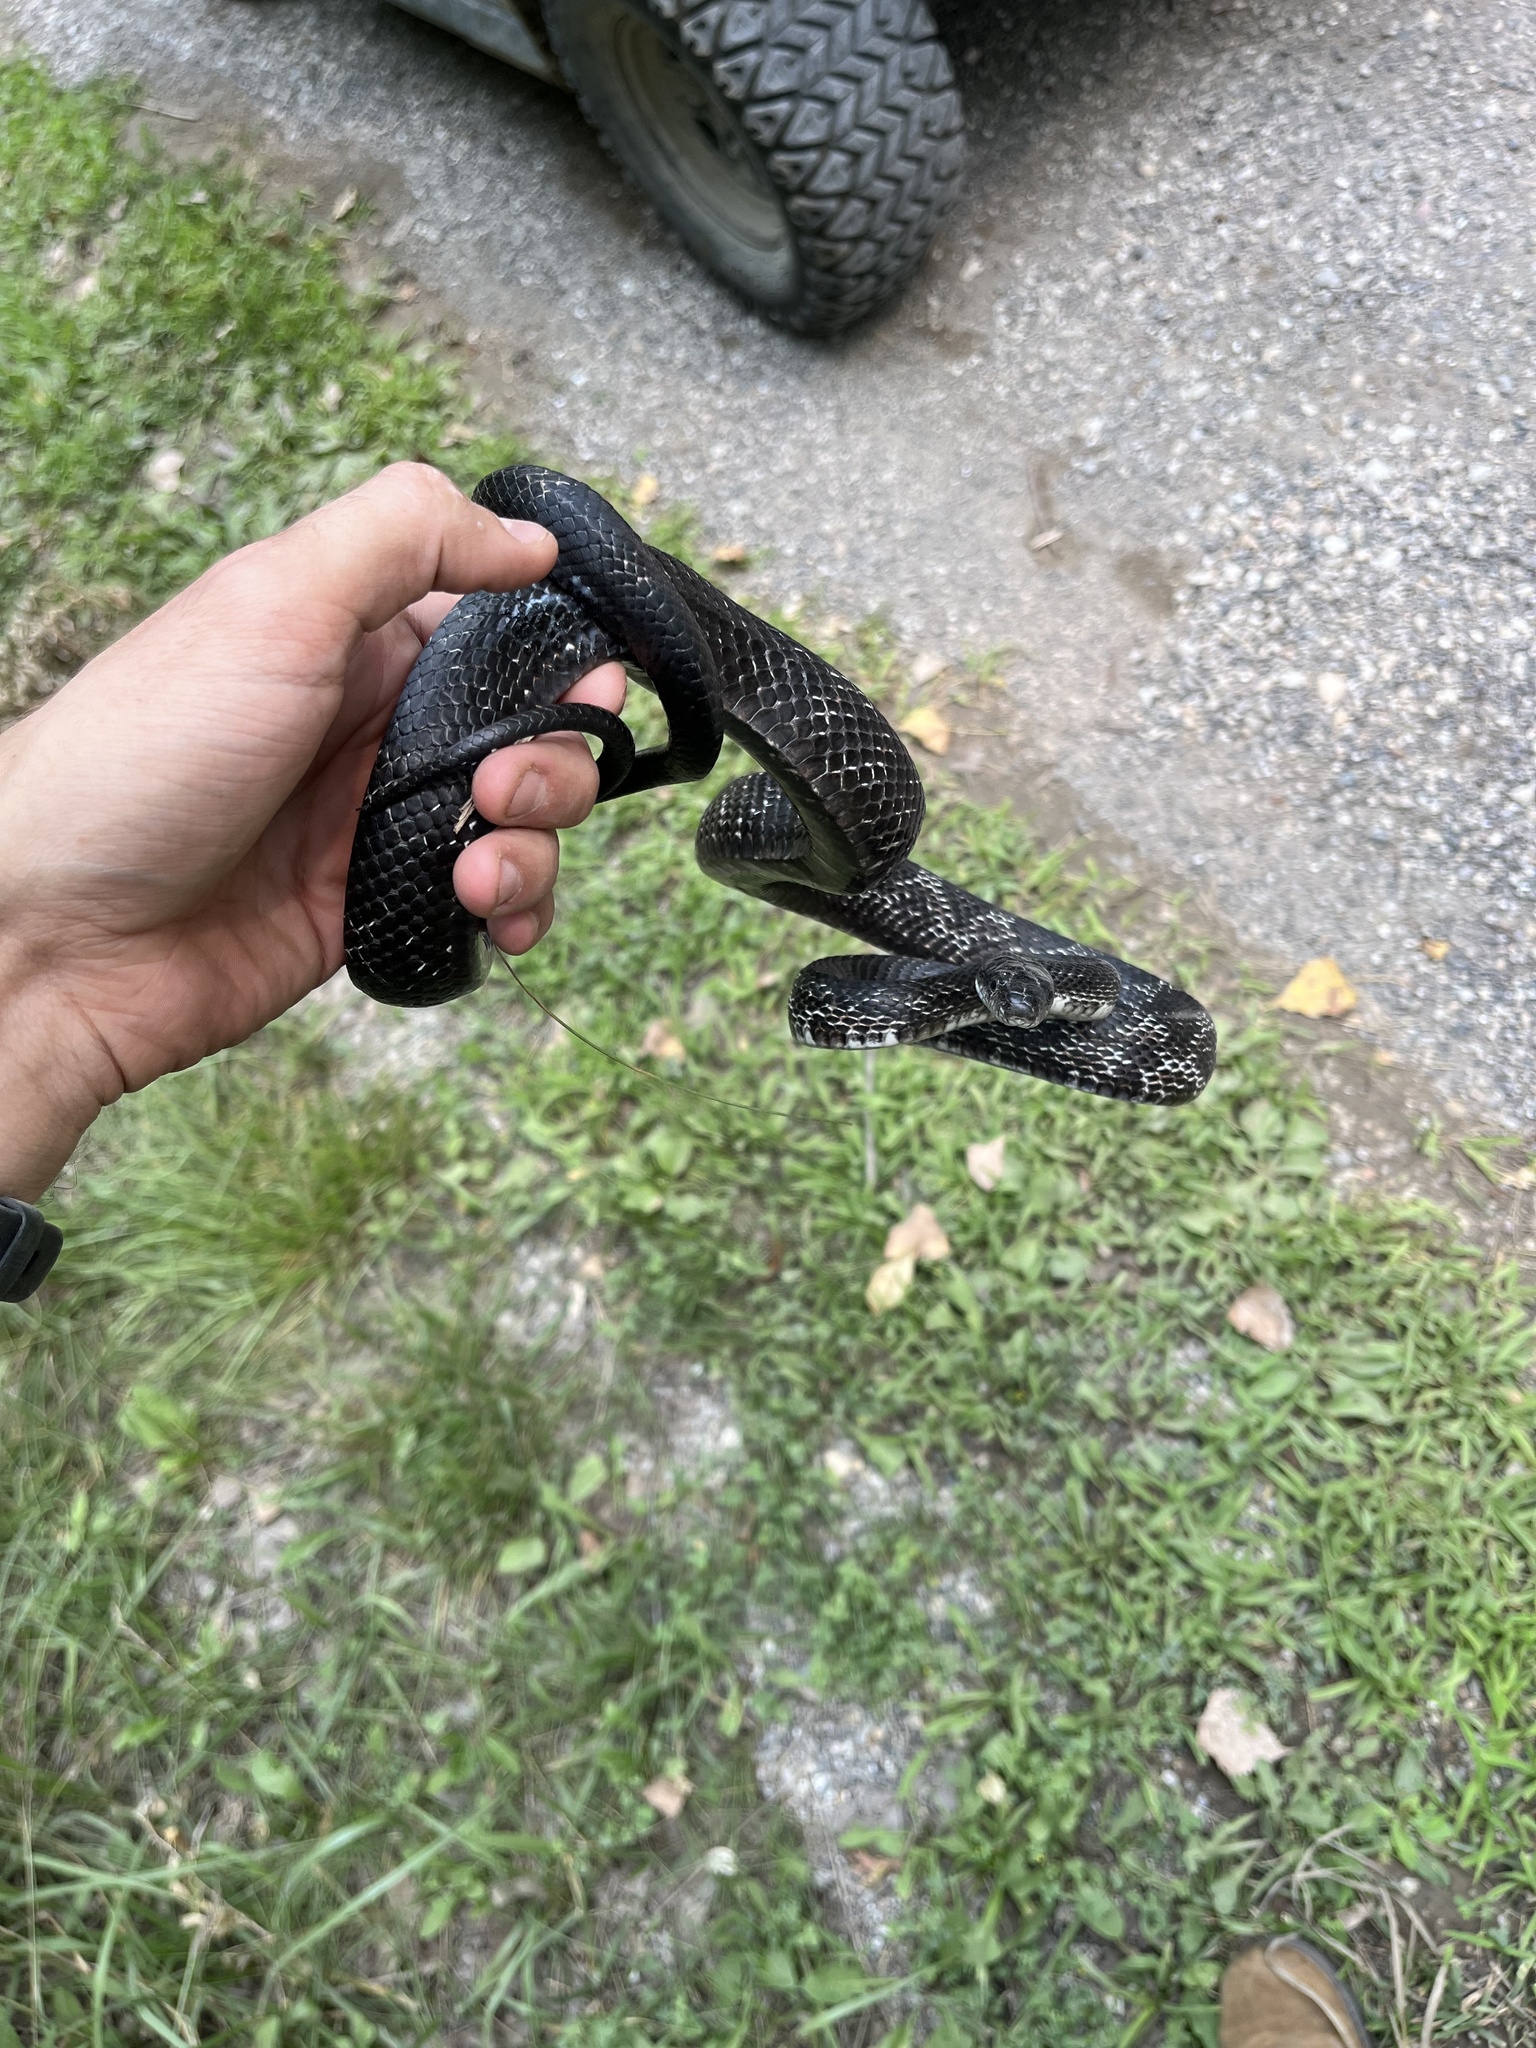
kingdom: Animalia
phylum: Chordata
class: Squamata
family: Colubridae
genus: Pantherophis
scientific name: Pantherophis spiloides
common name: Gray rat snake
